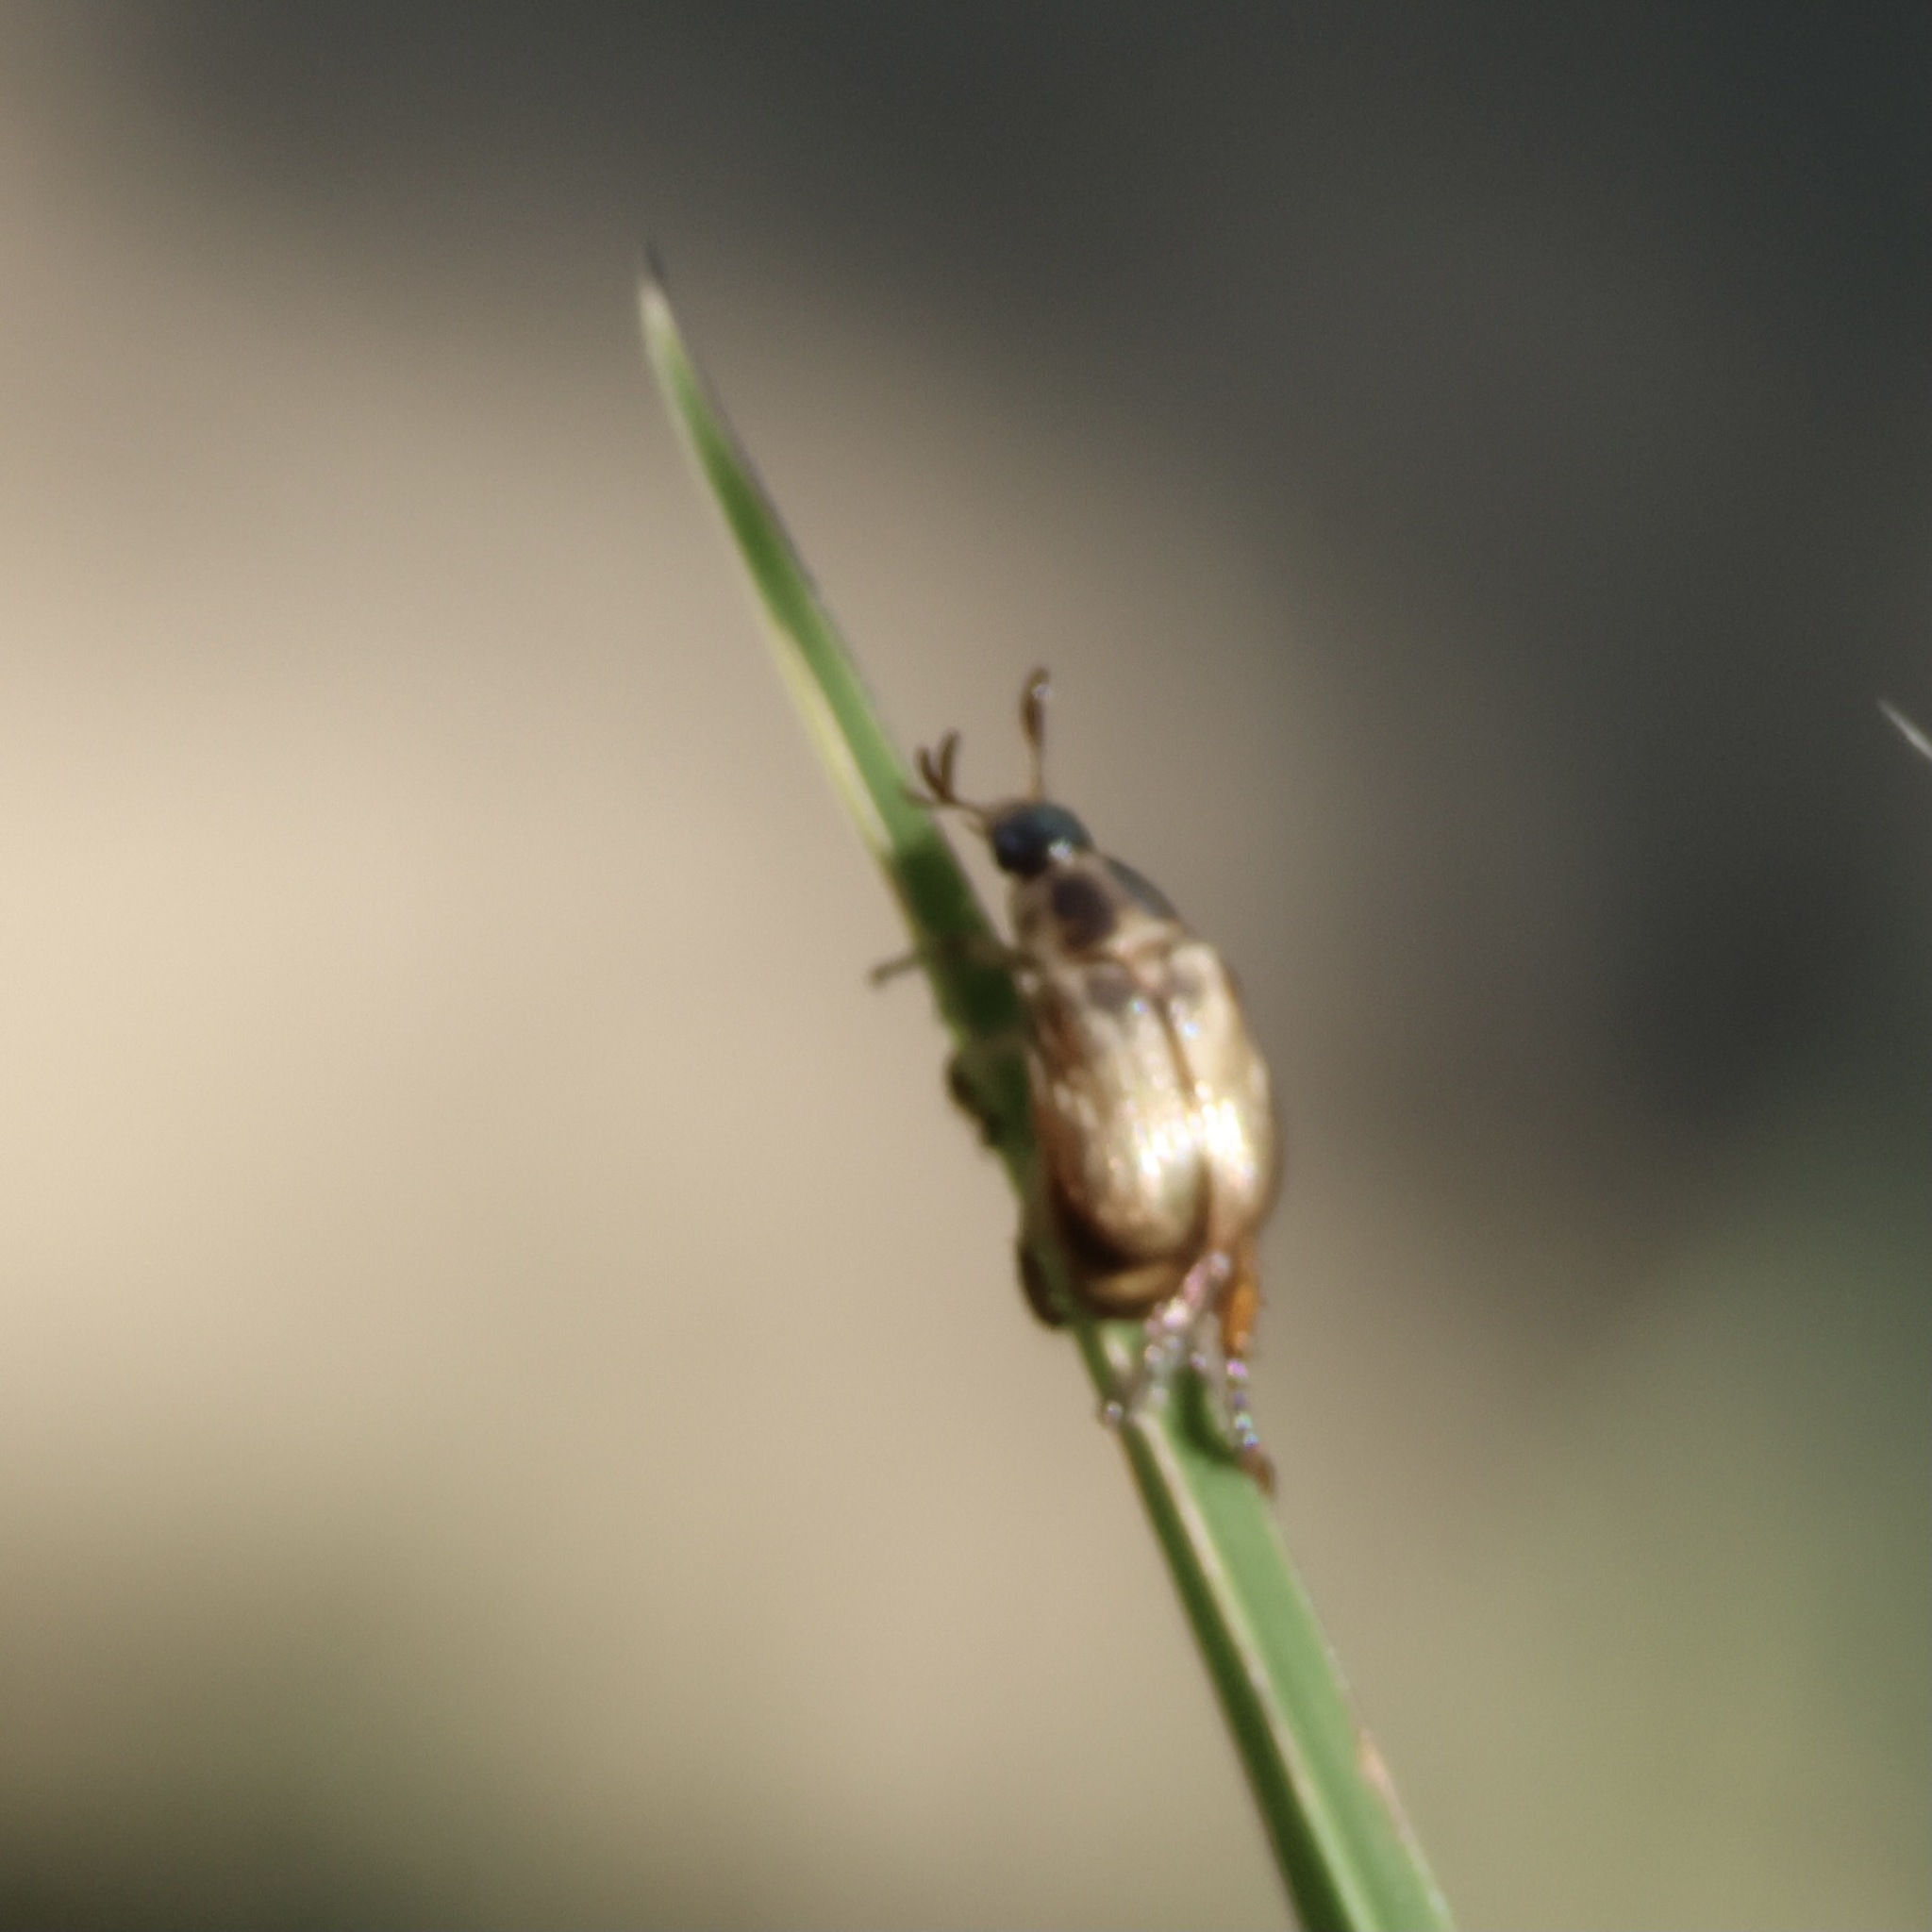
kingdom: Animalia
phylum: Arthropoda
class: Insecta
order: Coleoptera
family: Scarabaeidae
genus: Exomala
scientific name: Exomala orientalis
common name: Oriental beetle
